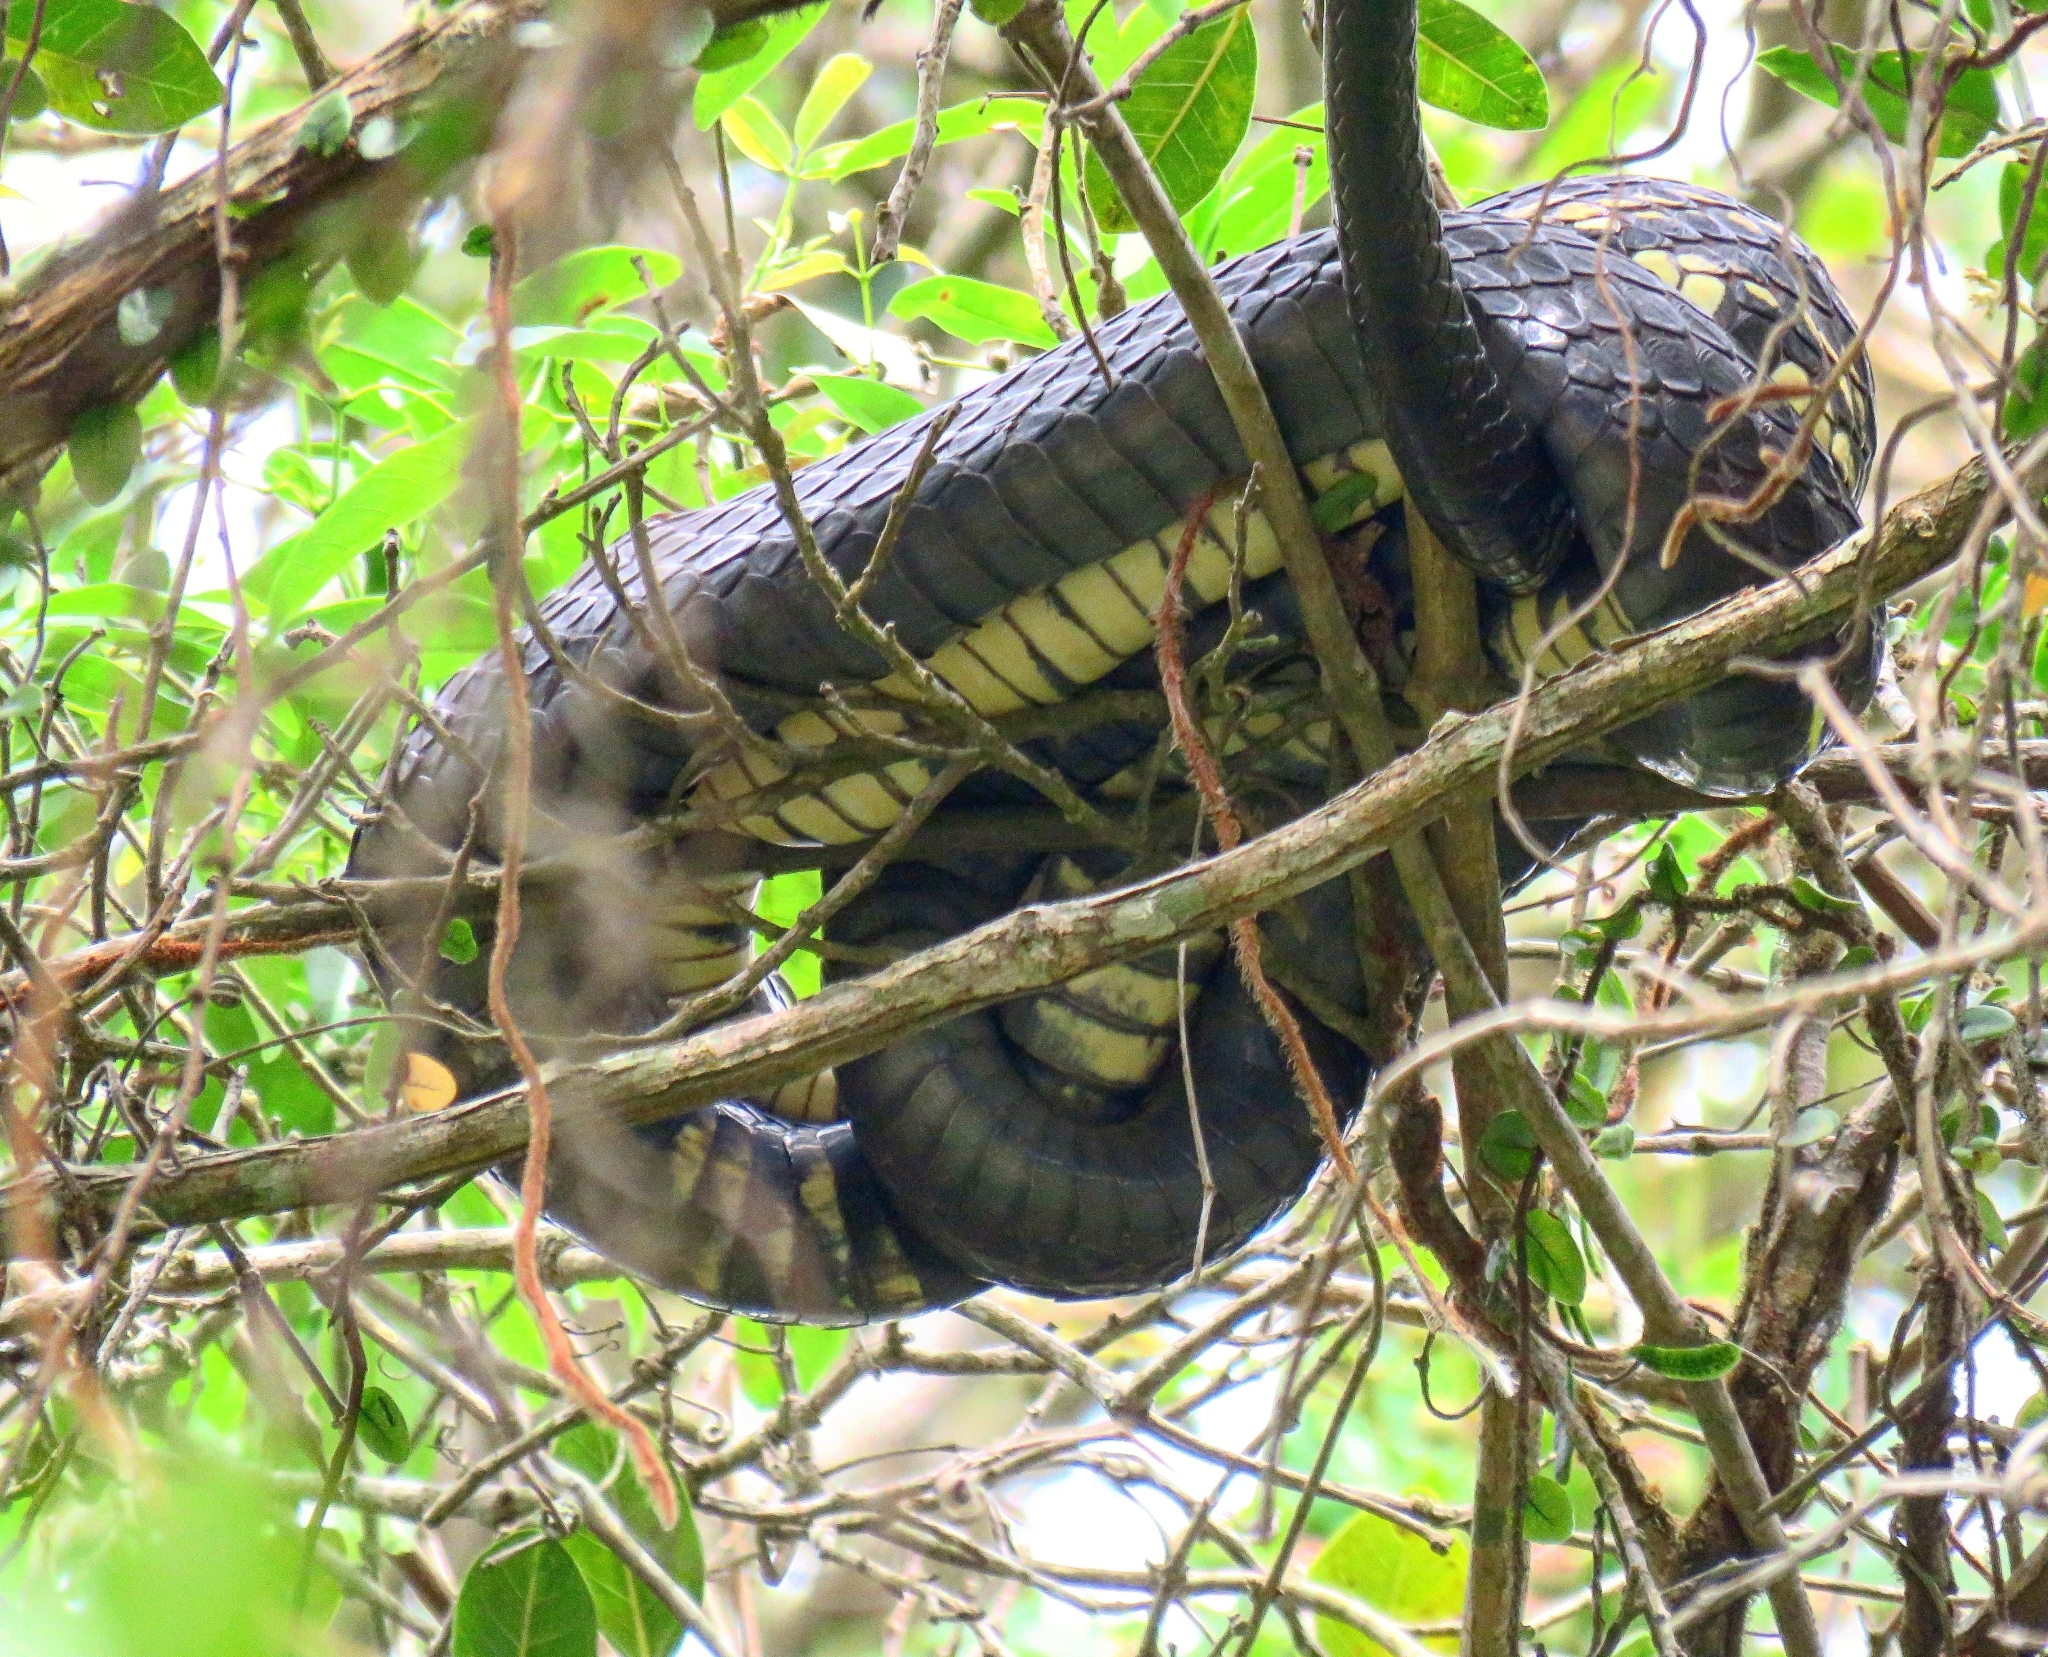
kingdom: Animalia
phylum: Chordata
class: Squamata
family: Colubridae
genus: Spilotes
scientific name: Spilotes pullatus
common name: Chicken snake
